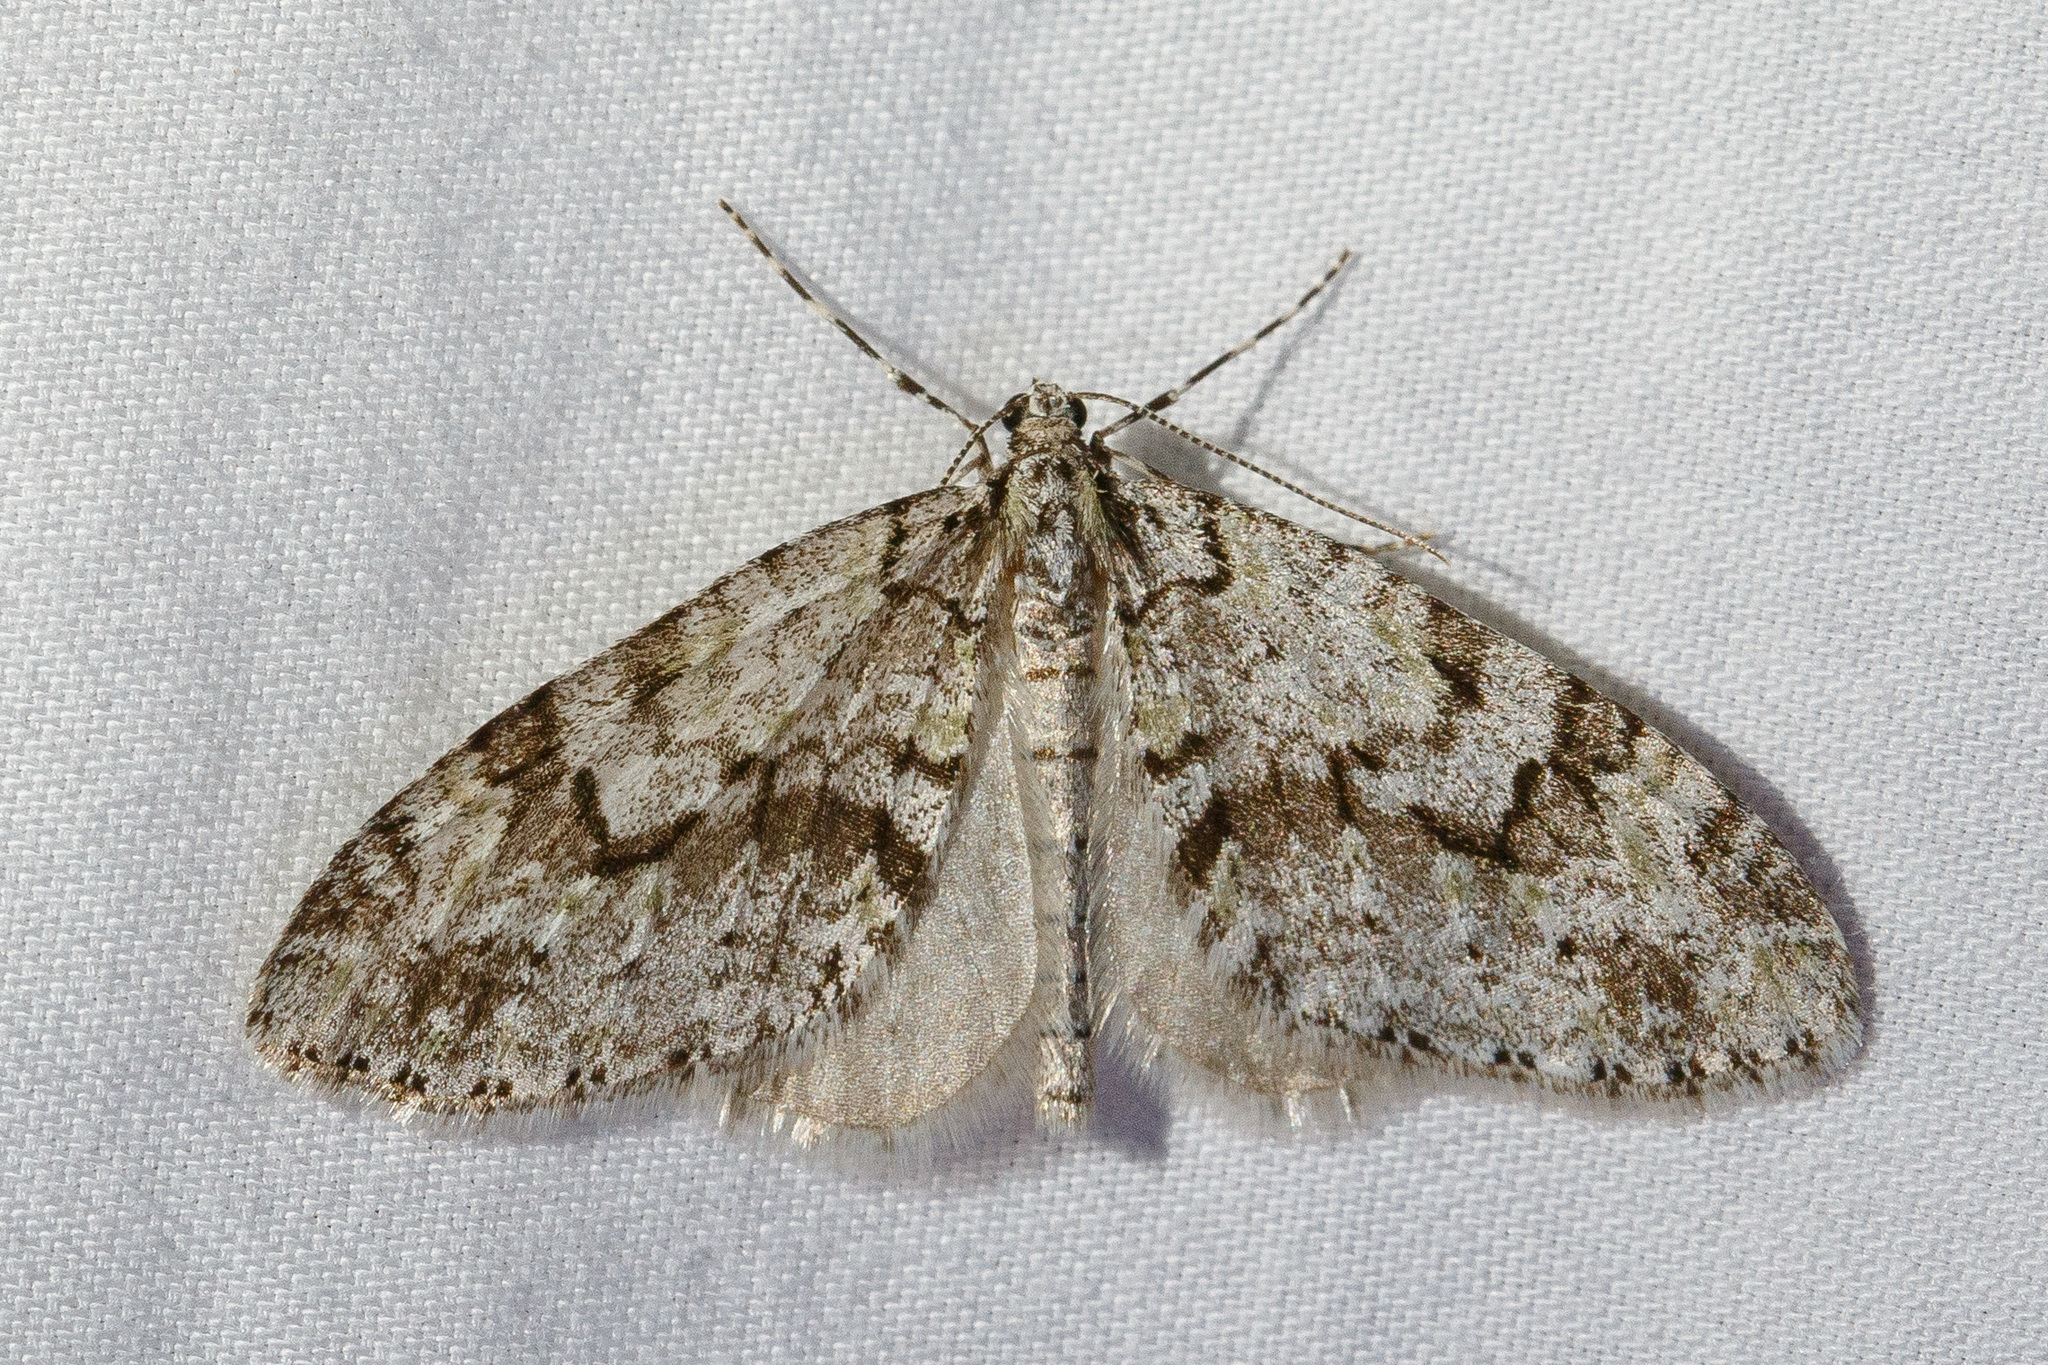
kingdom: Animalia
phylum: Arthropoda
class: Insecta
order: Lepidoptera
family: Geometridae
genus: Cladara
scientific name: Cladara limitaria
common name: Mottled gray carpet
